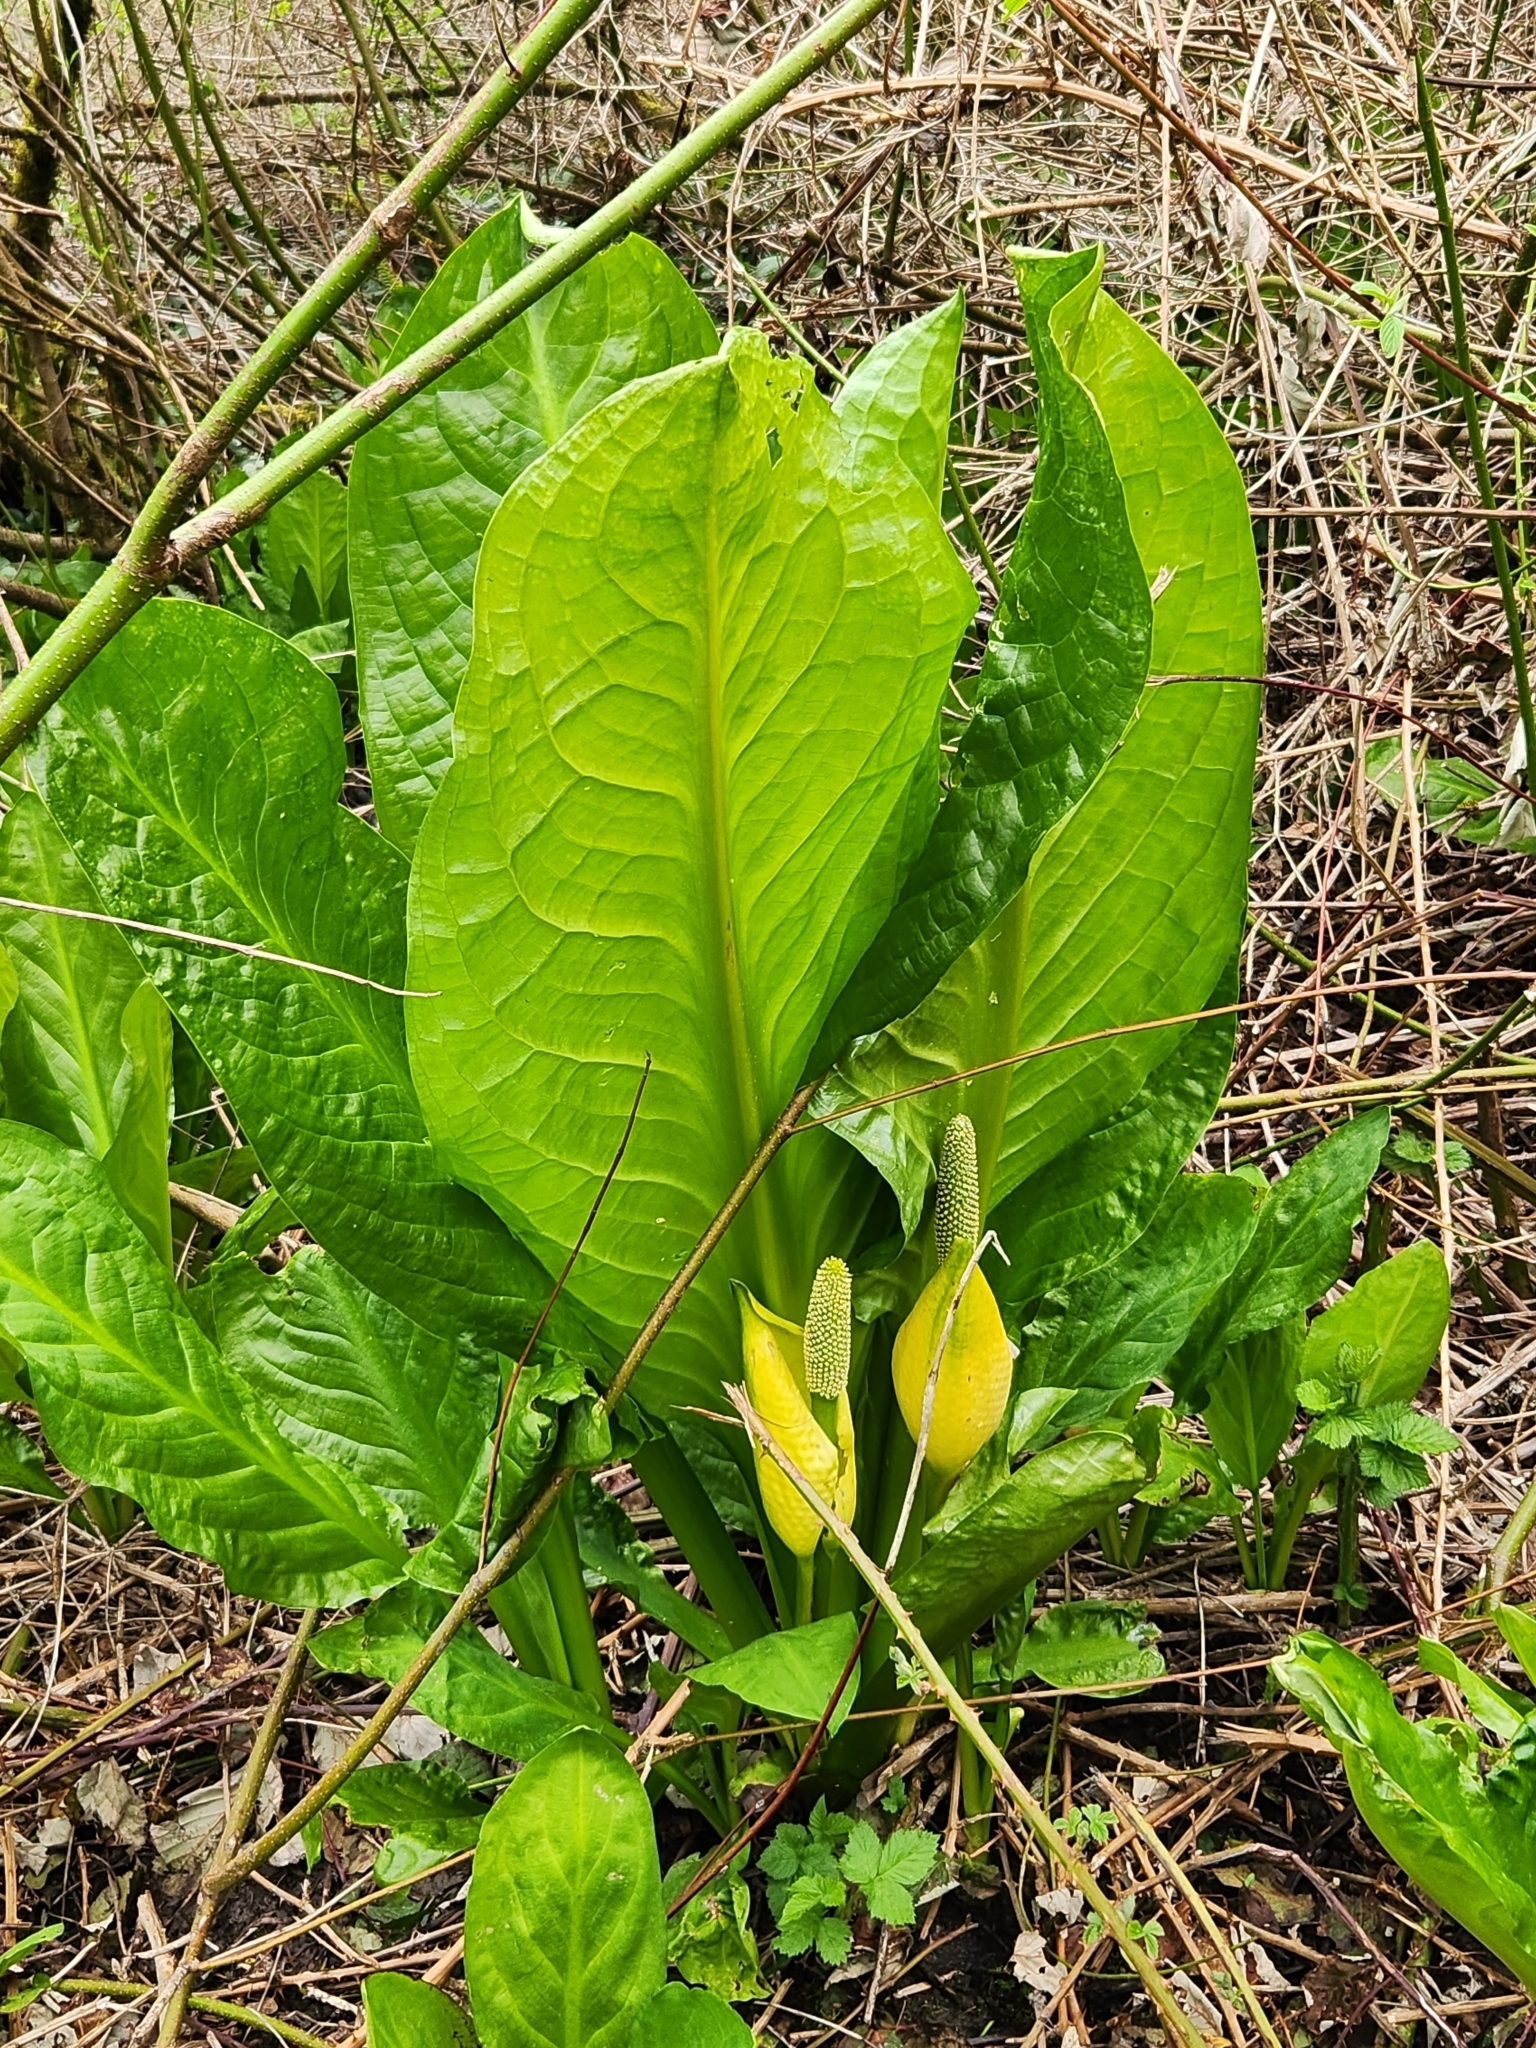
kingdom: Plantae
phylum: Tracheophyta
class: Liliopsida
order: Alismatales
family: Araceae
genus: Lysichiton
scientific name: Lysichiton americanus
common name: American skunk cabbage
